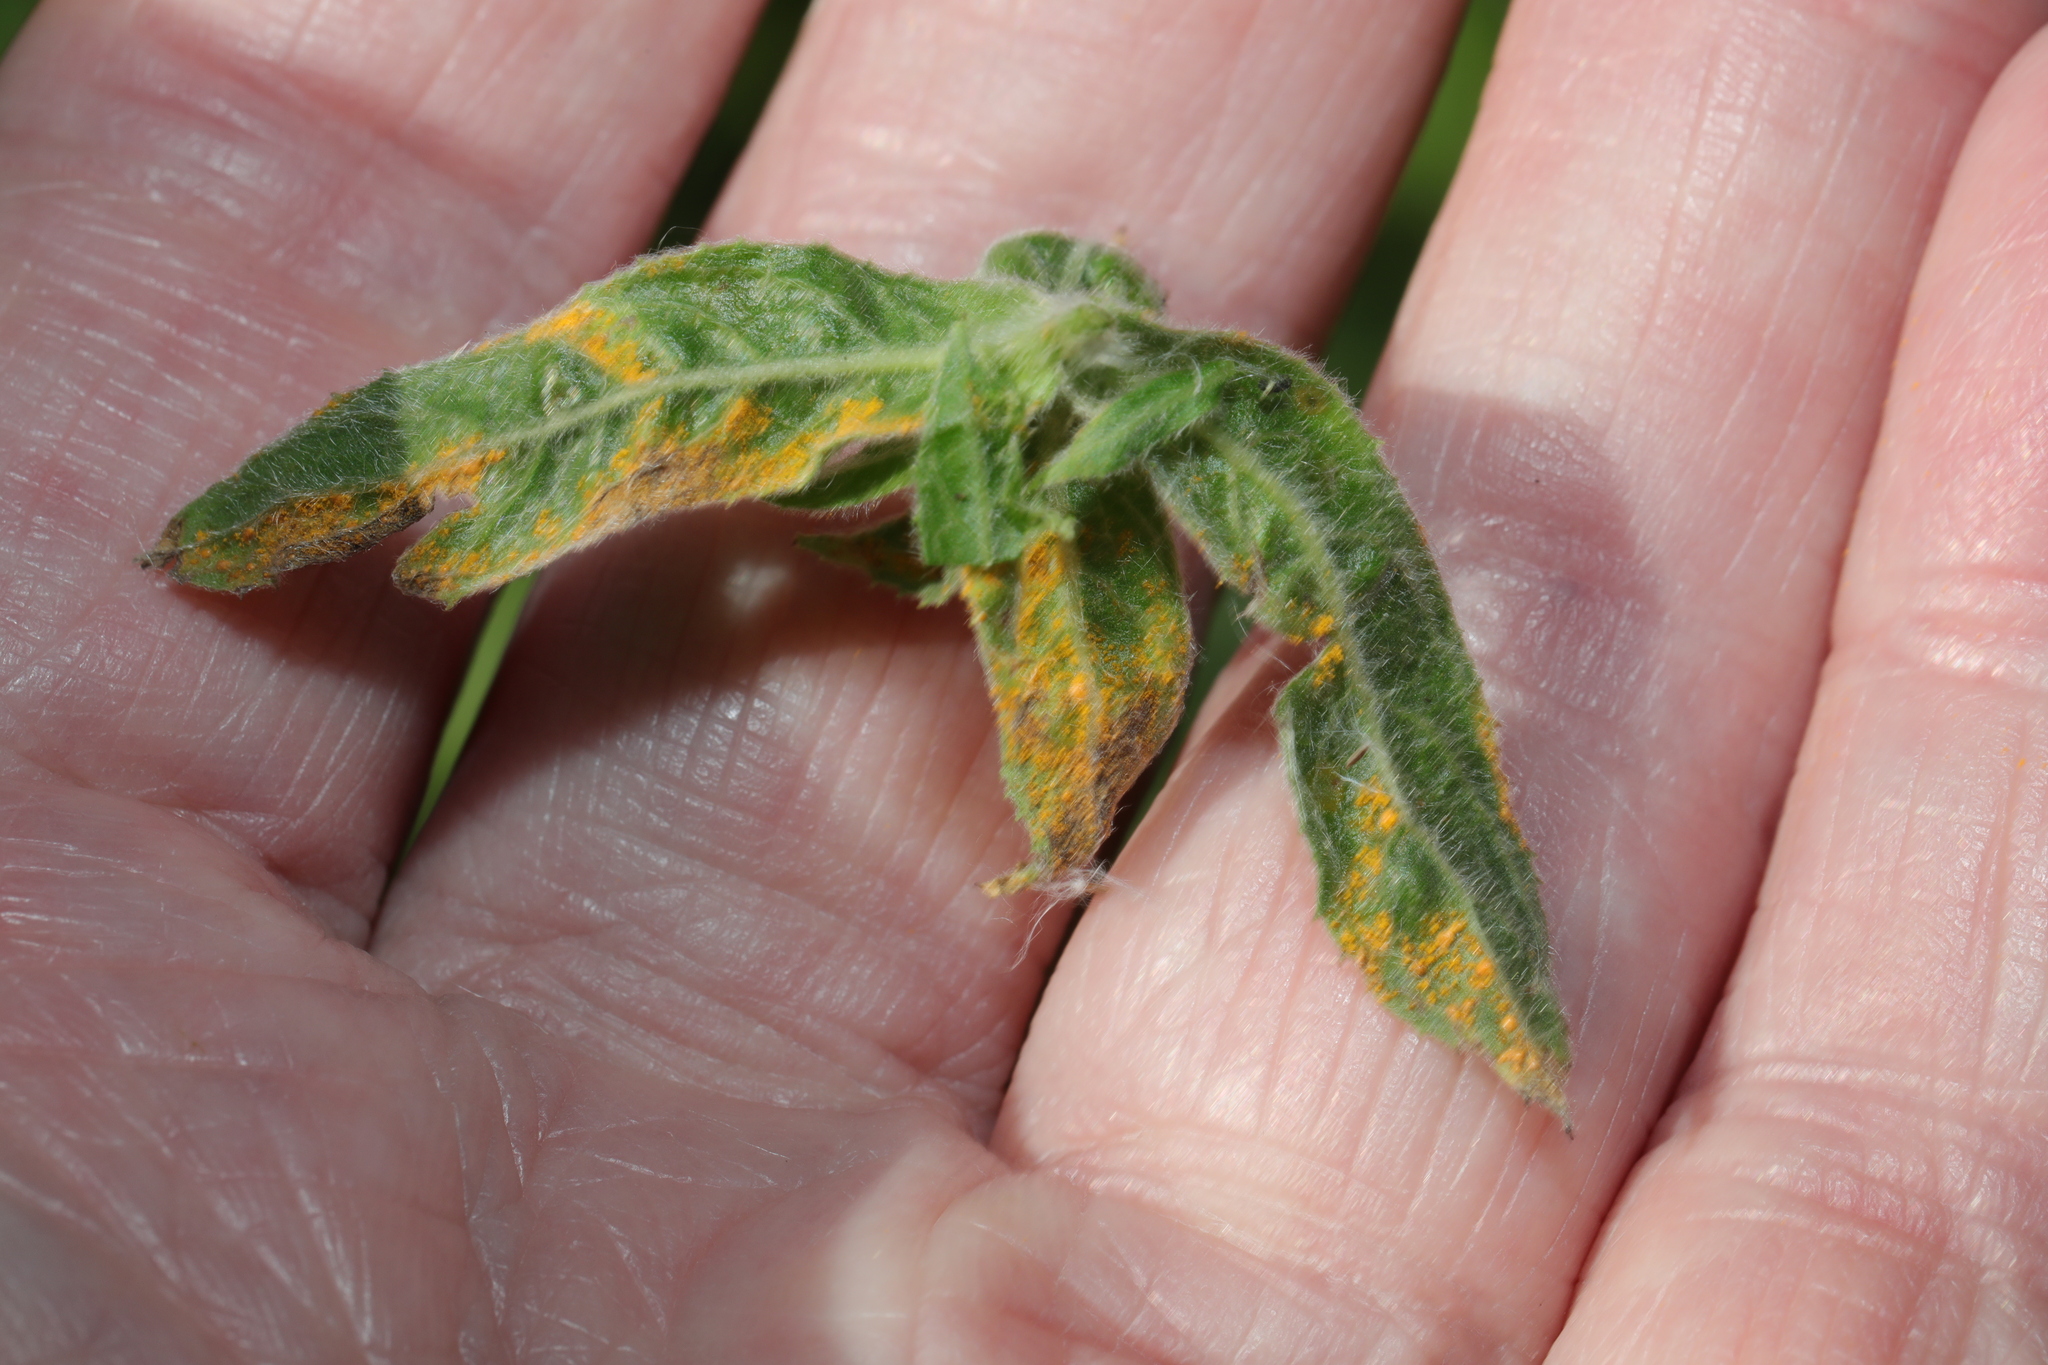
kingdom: Fungi
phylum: Basidiomycota
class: Pucciniomycetes
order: Pucciniales
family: Pucciniastraceae
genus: Pucciniastrum
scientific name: Pucciniastrum epilobii
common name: Fuchsia rust
